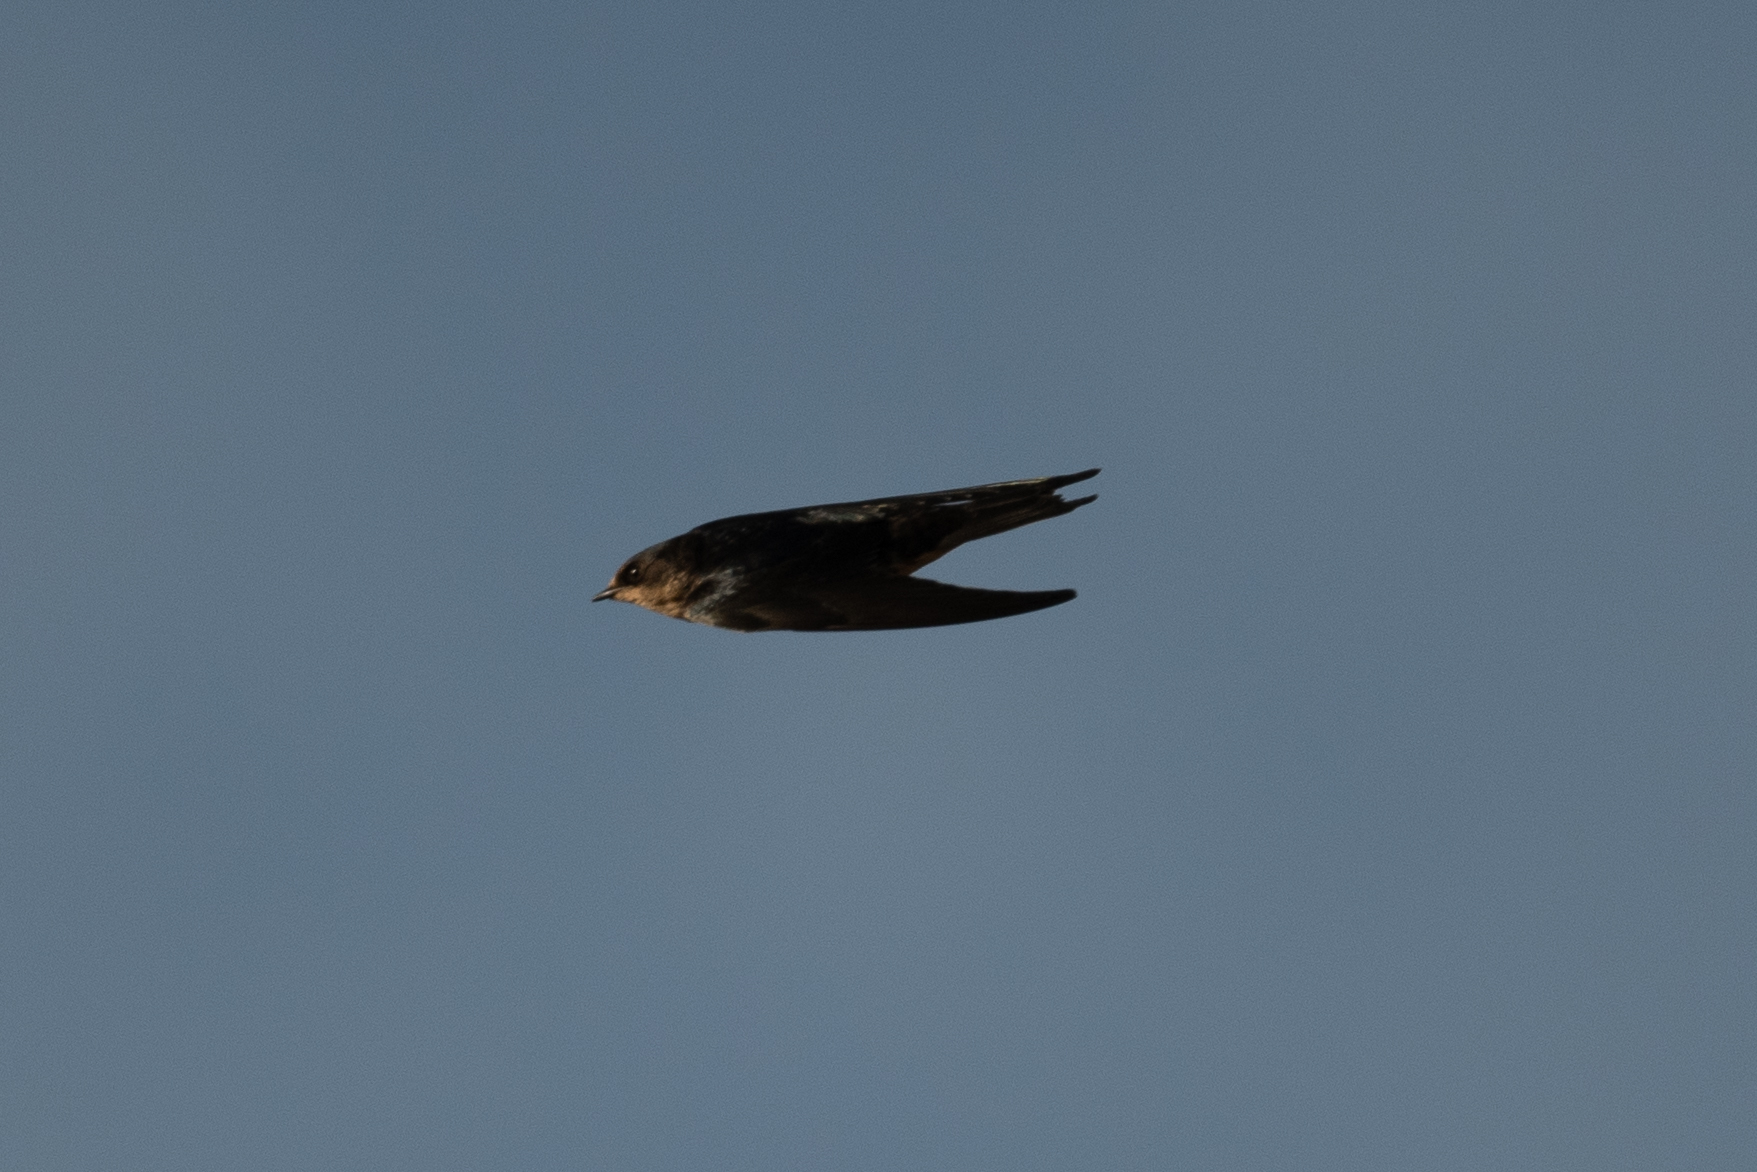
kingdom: Animalia
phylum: Chordata
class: Aves
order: Passeriformes
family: Hirundinidae
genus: Hirundo
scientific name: Hirundo rustica
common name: Barn swallow
